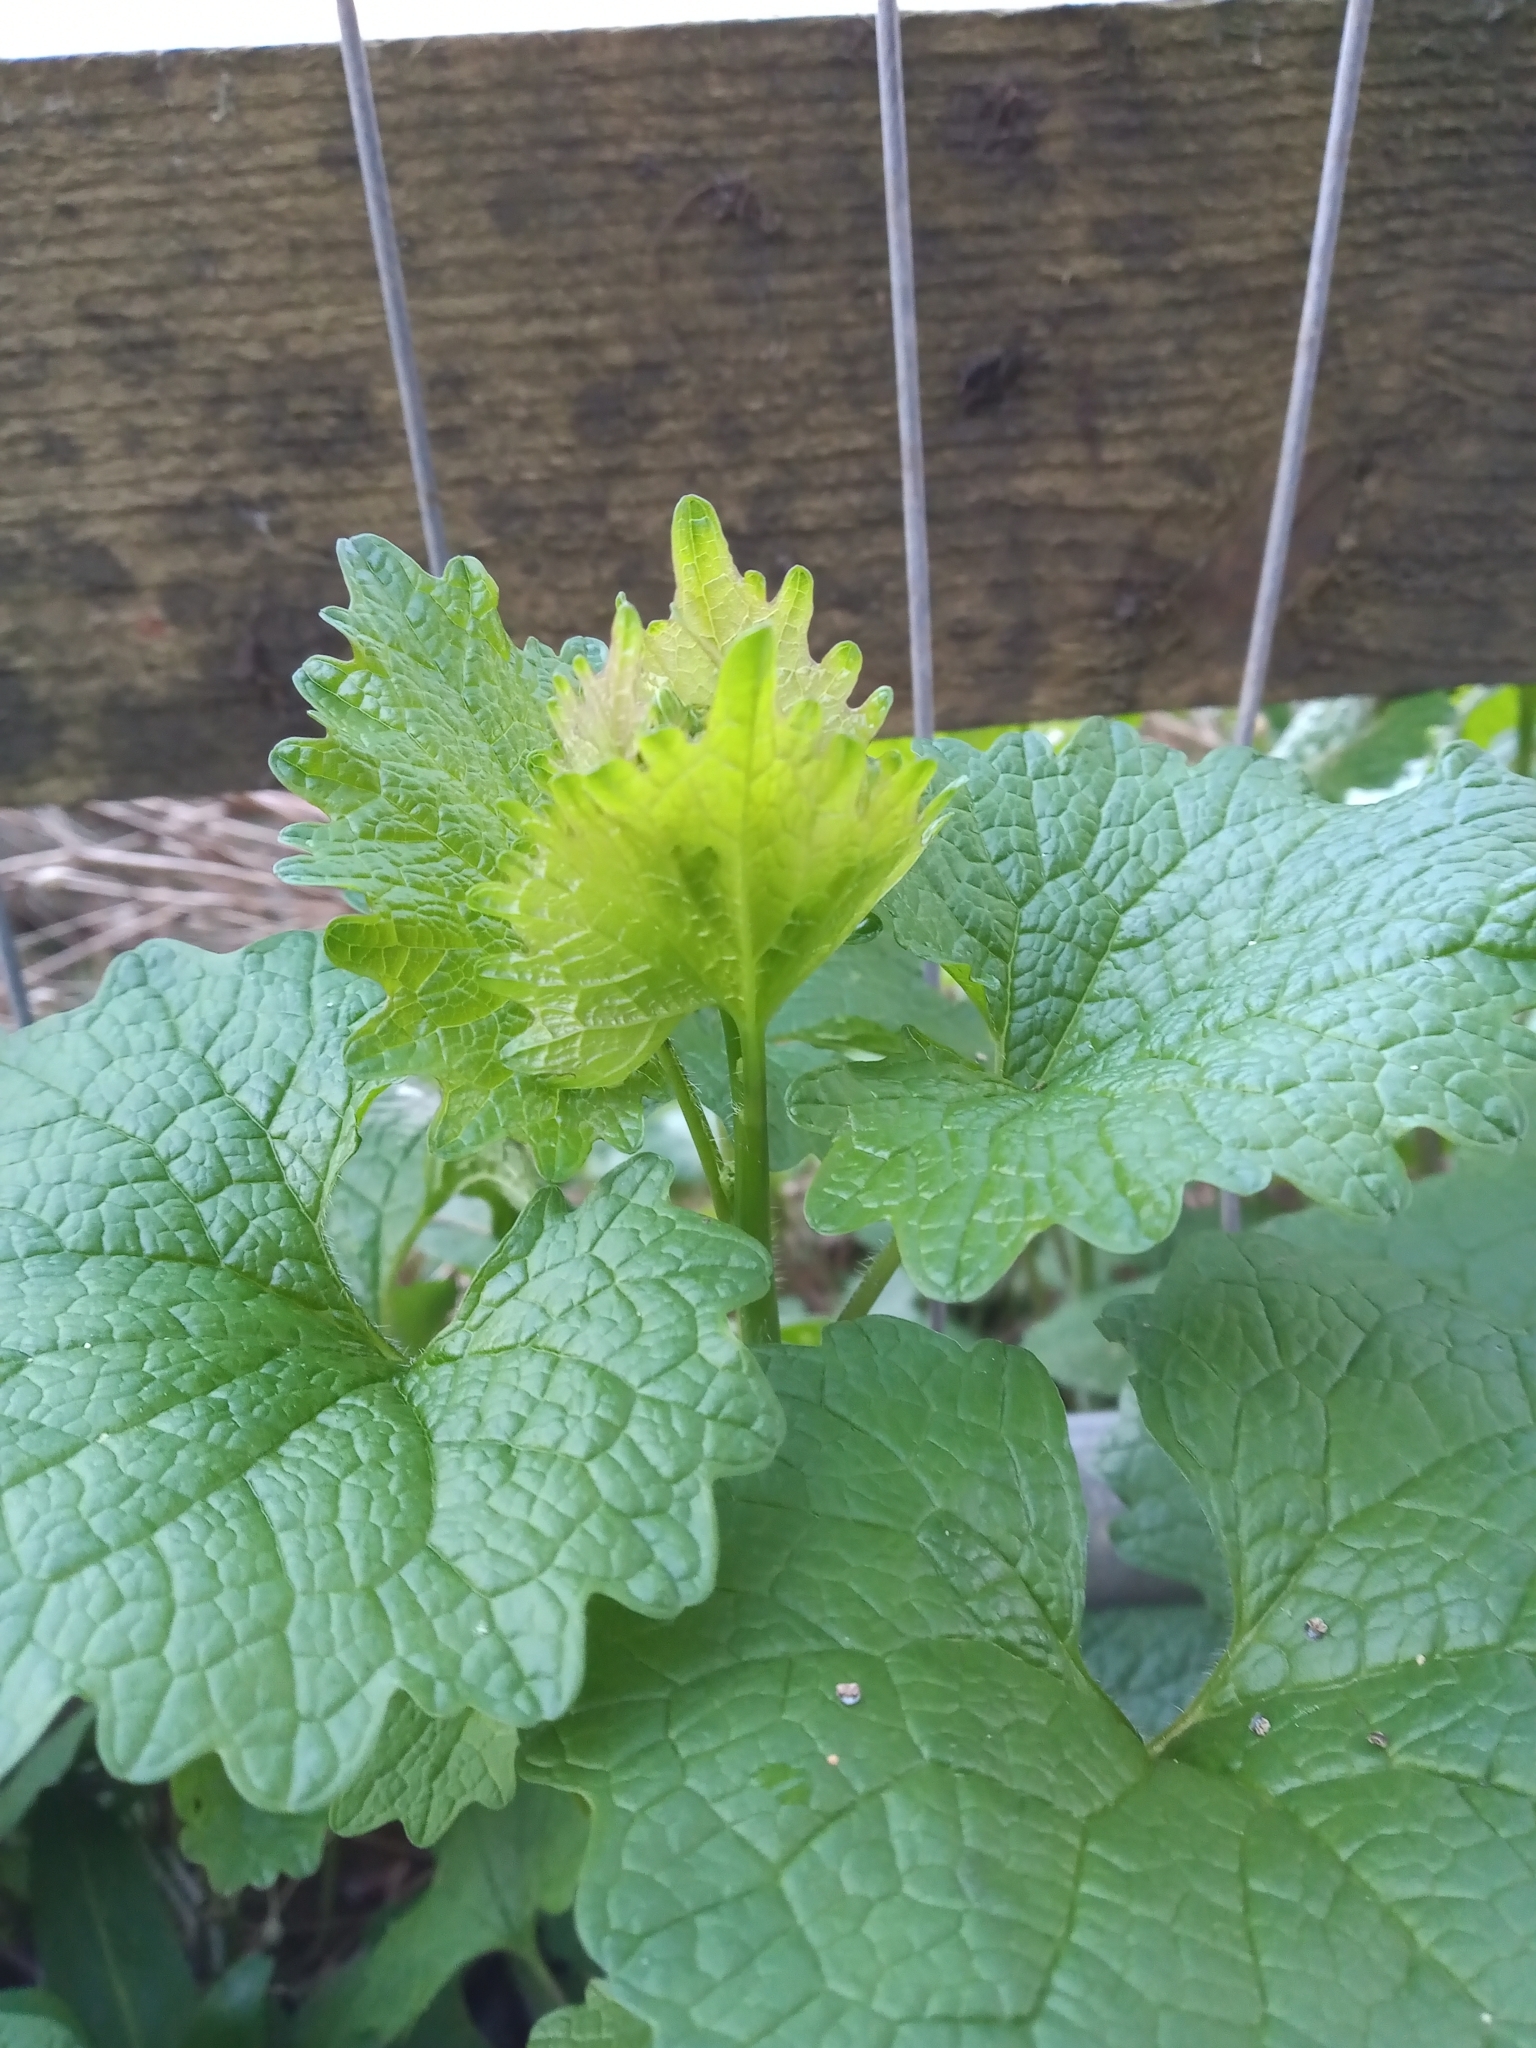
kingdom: Plantae
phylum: Tracheophyta
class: Magnoliopsida
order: Brassicales
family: Brassicaceae
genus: Alliaria
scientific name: Alliaria petiolata
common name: Garlic mustard
